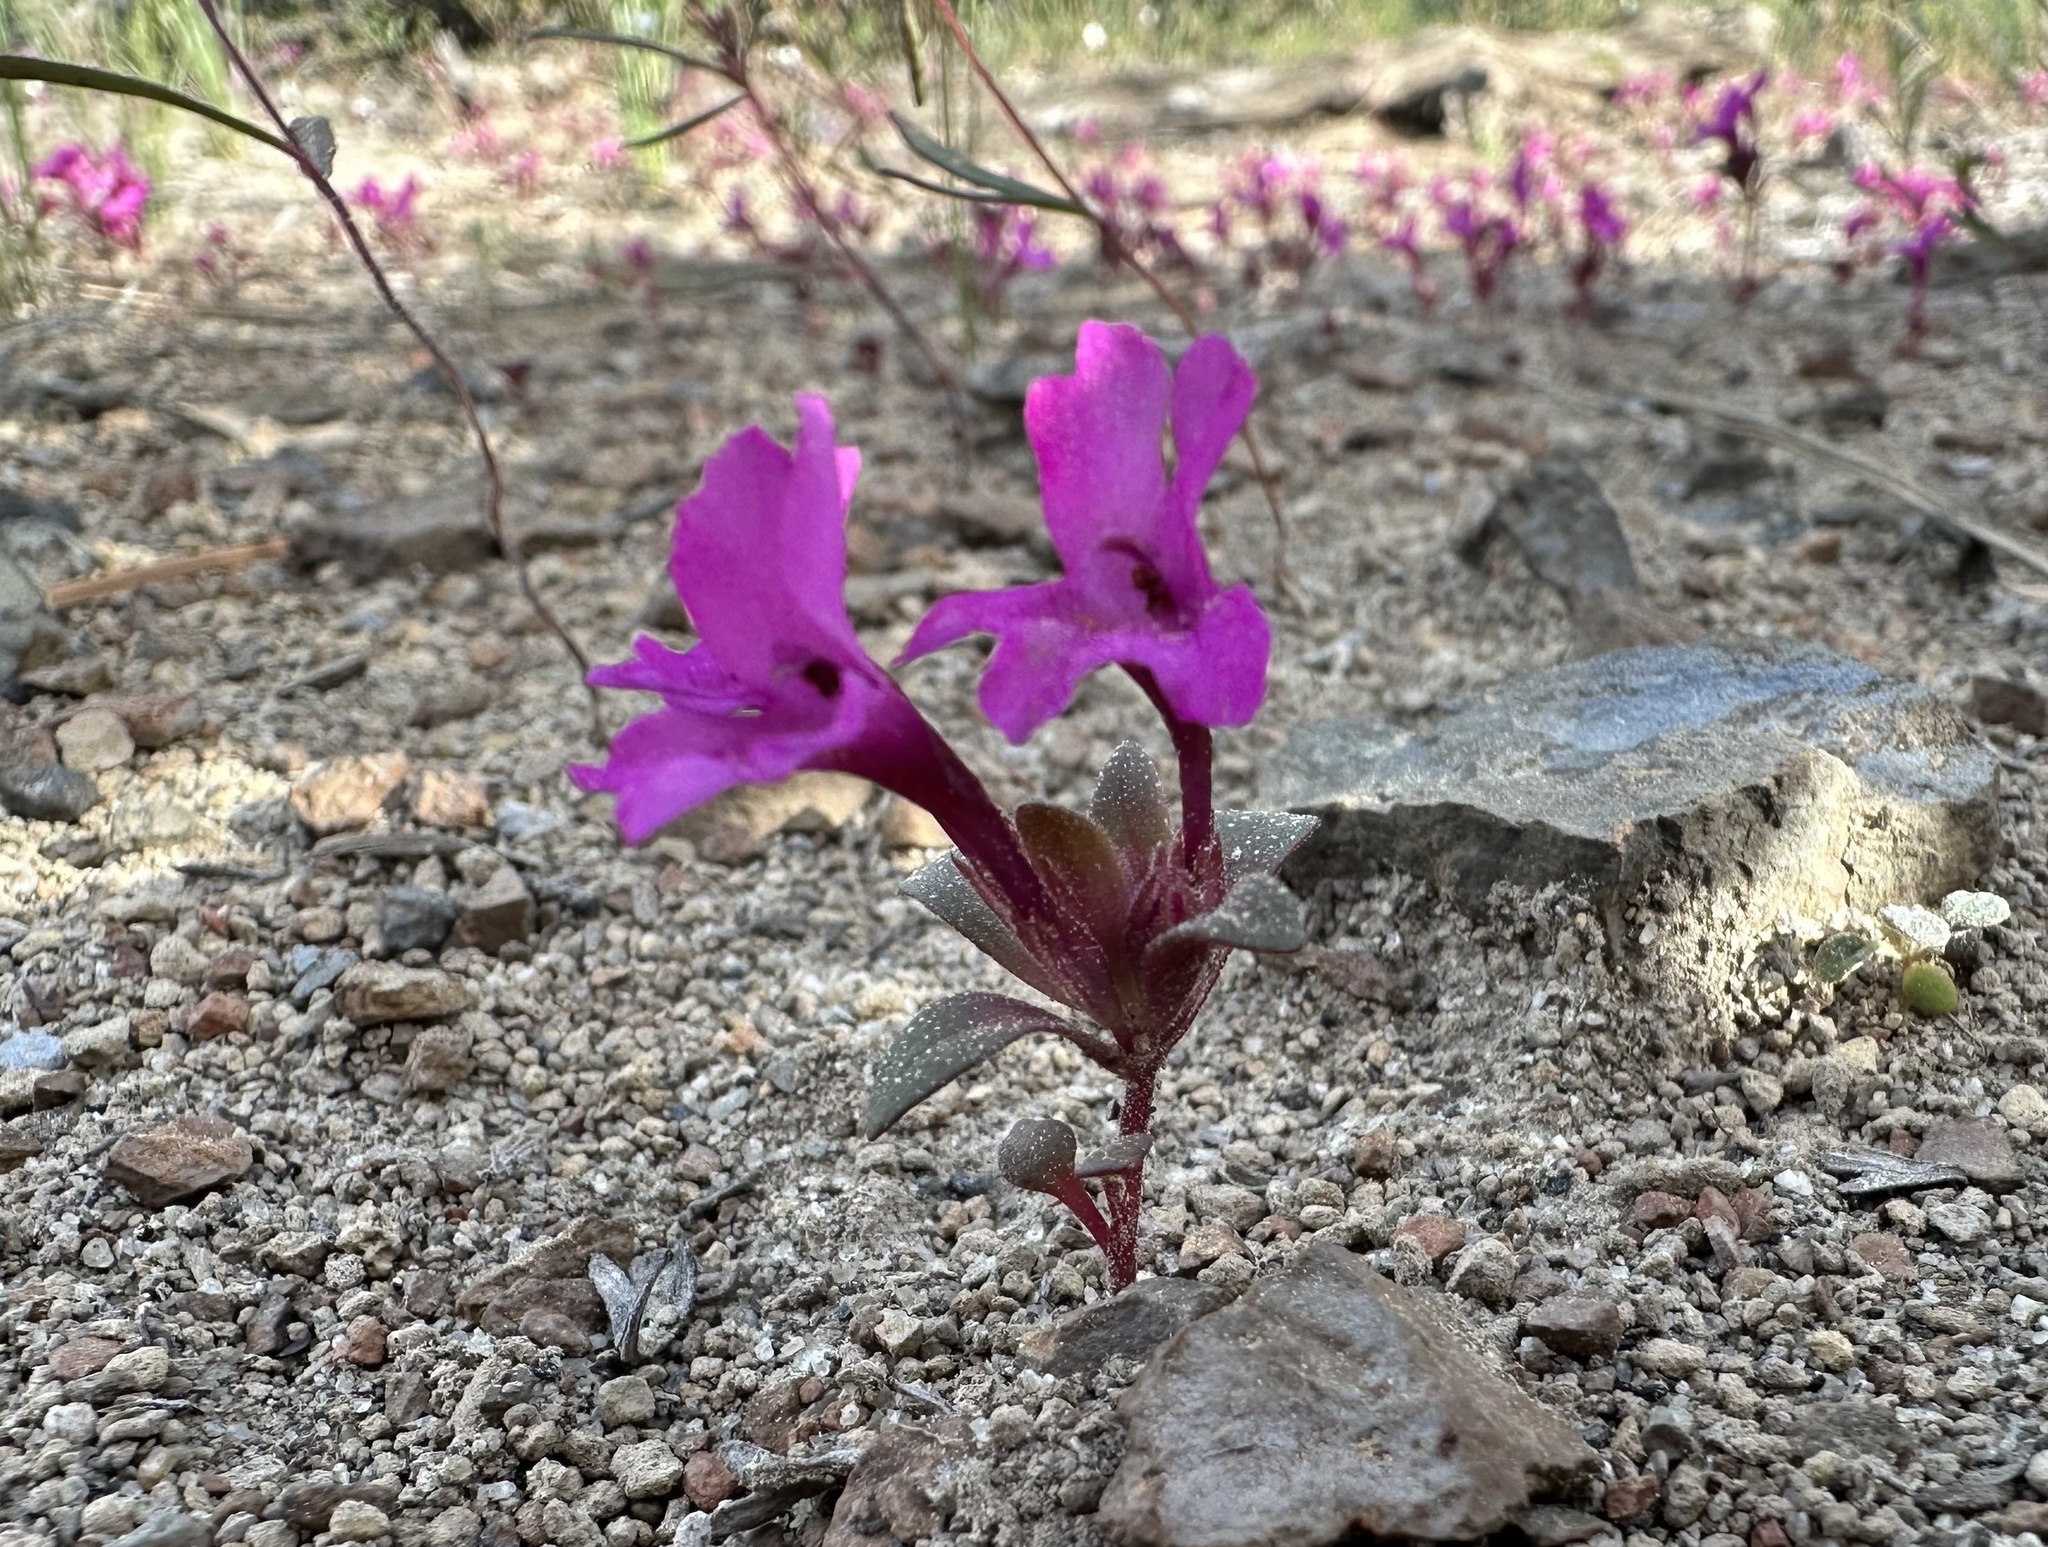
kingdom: Plantae
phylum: Tracheophyta
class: Magnoliopsida
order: Lamiales
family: Phrymaceae
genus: Diplacus
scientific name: Diplacus cascadensis
